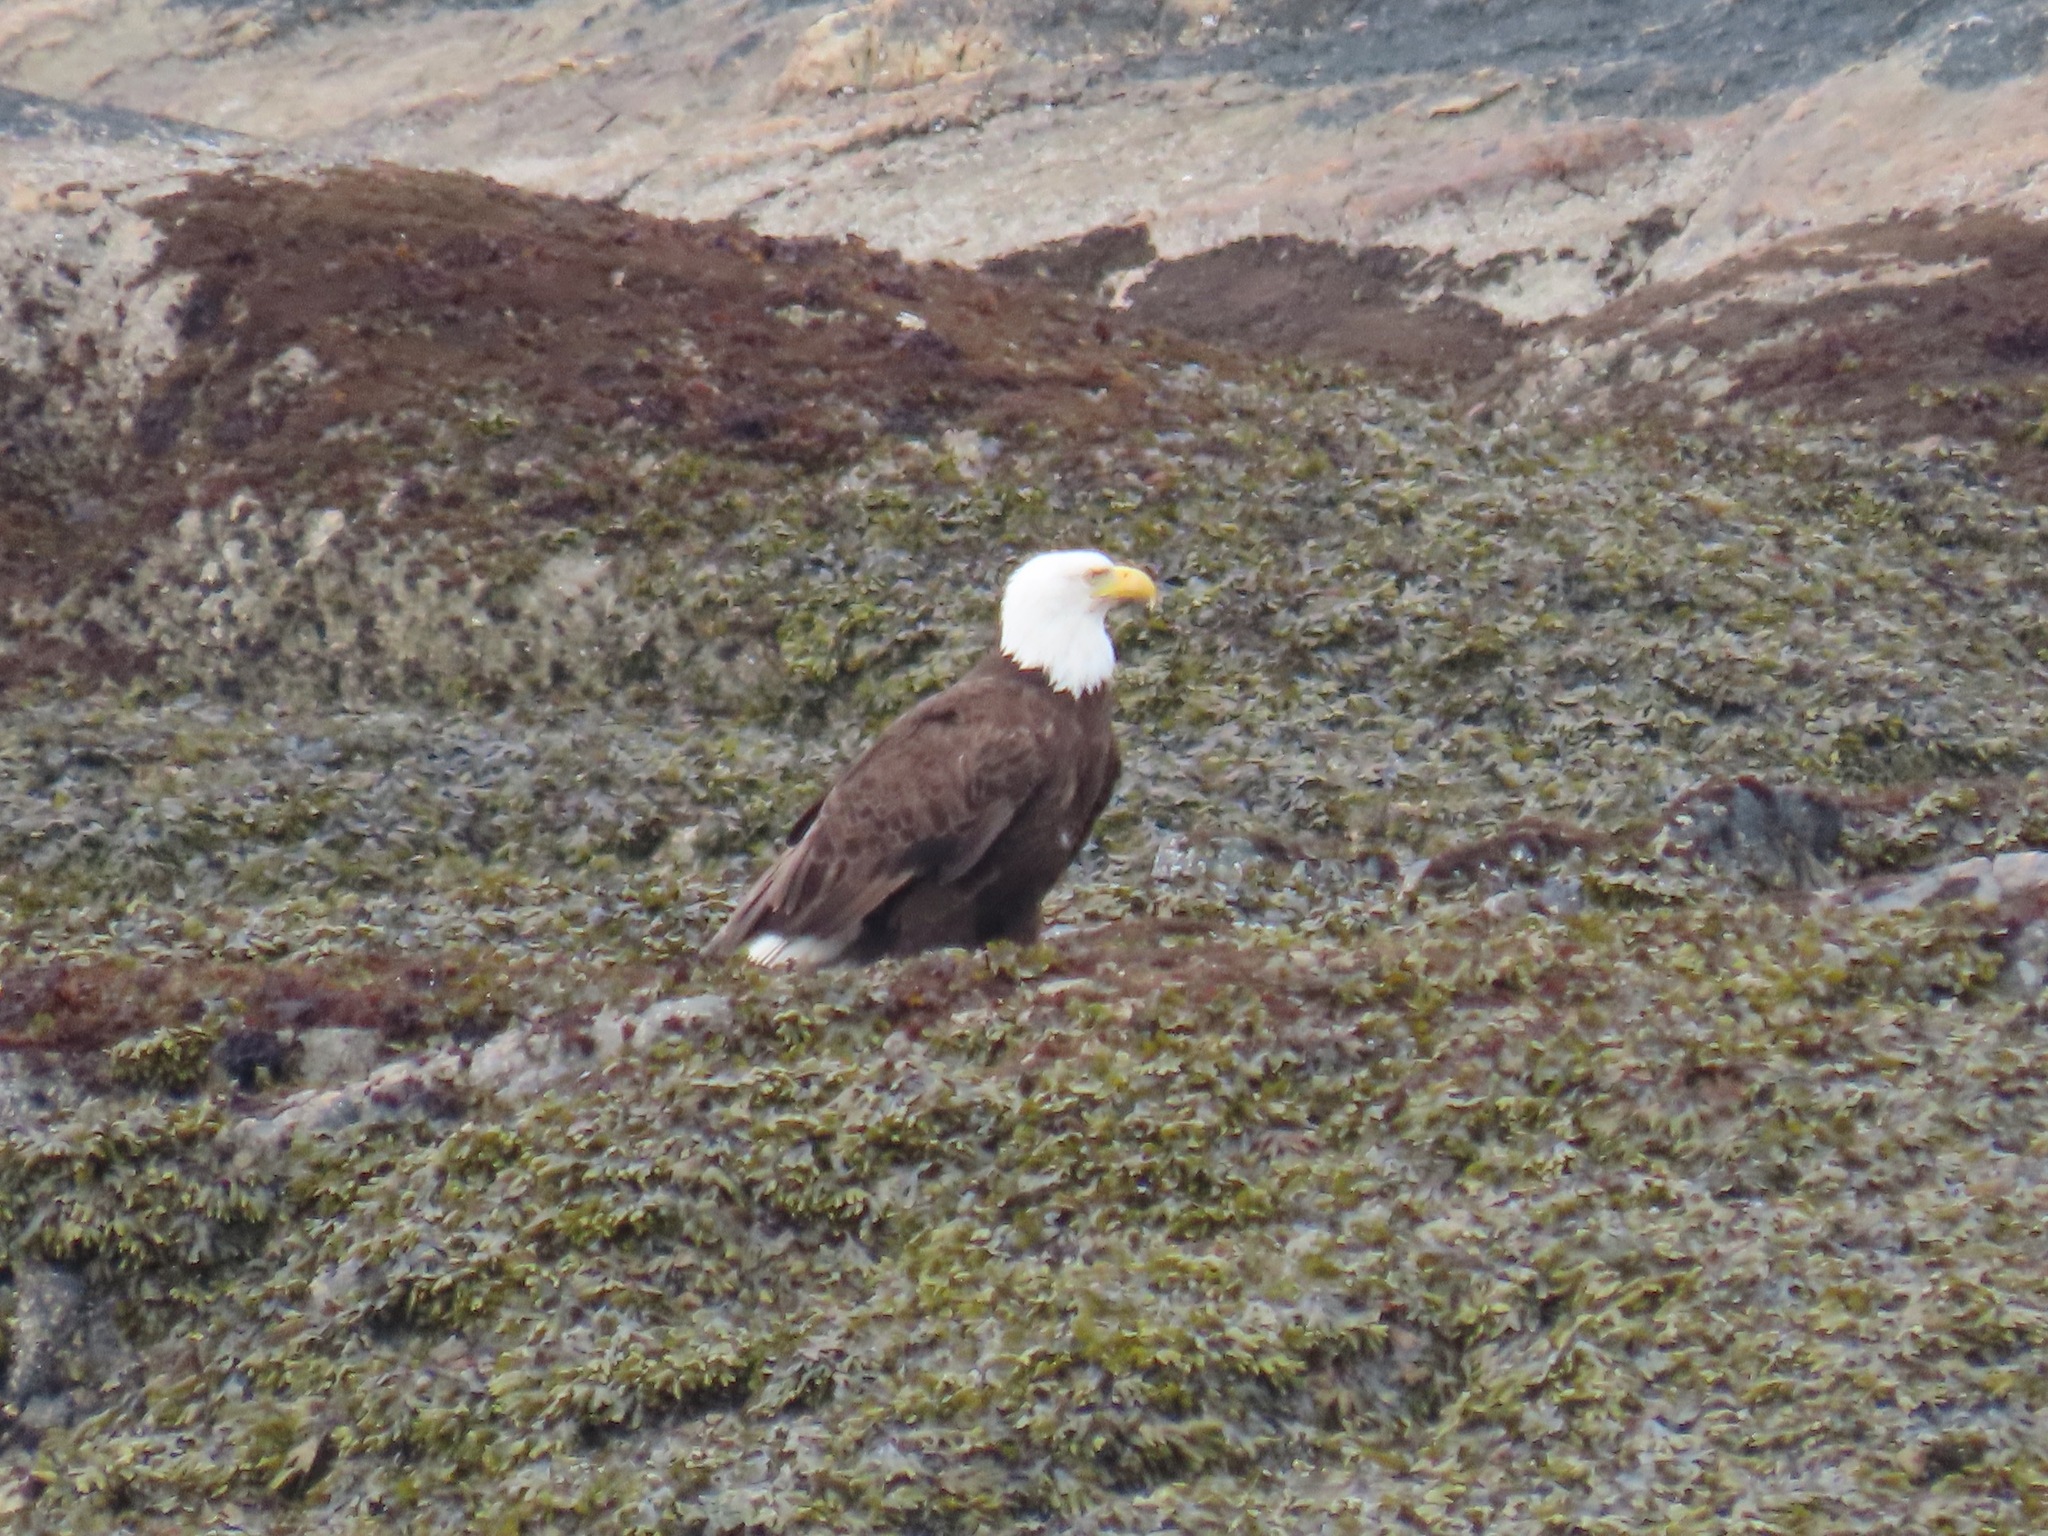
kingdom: Animalia
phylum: Chordata
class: Aves
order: Accipitriformes
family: Accipitridae
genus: Haliaeetus
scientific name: Haliaeetus leucocephalus
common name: Bald eagle
